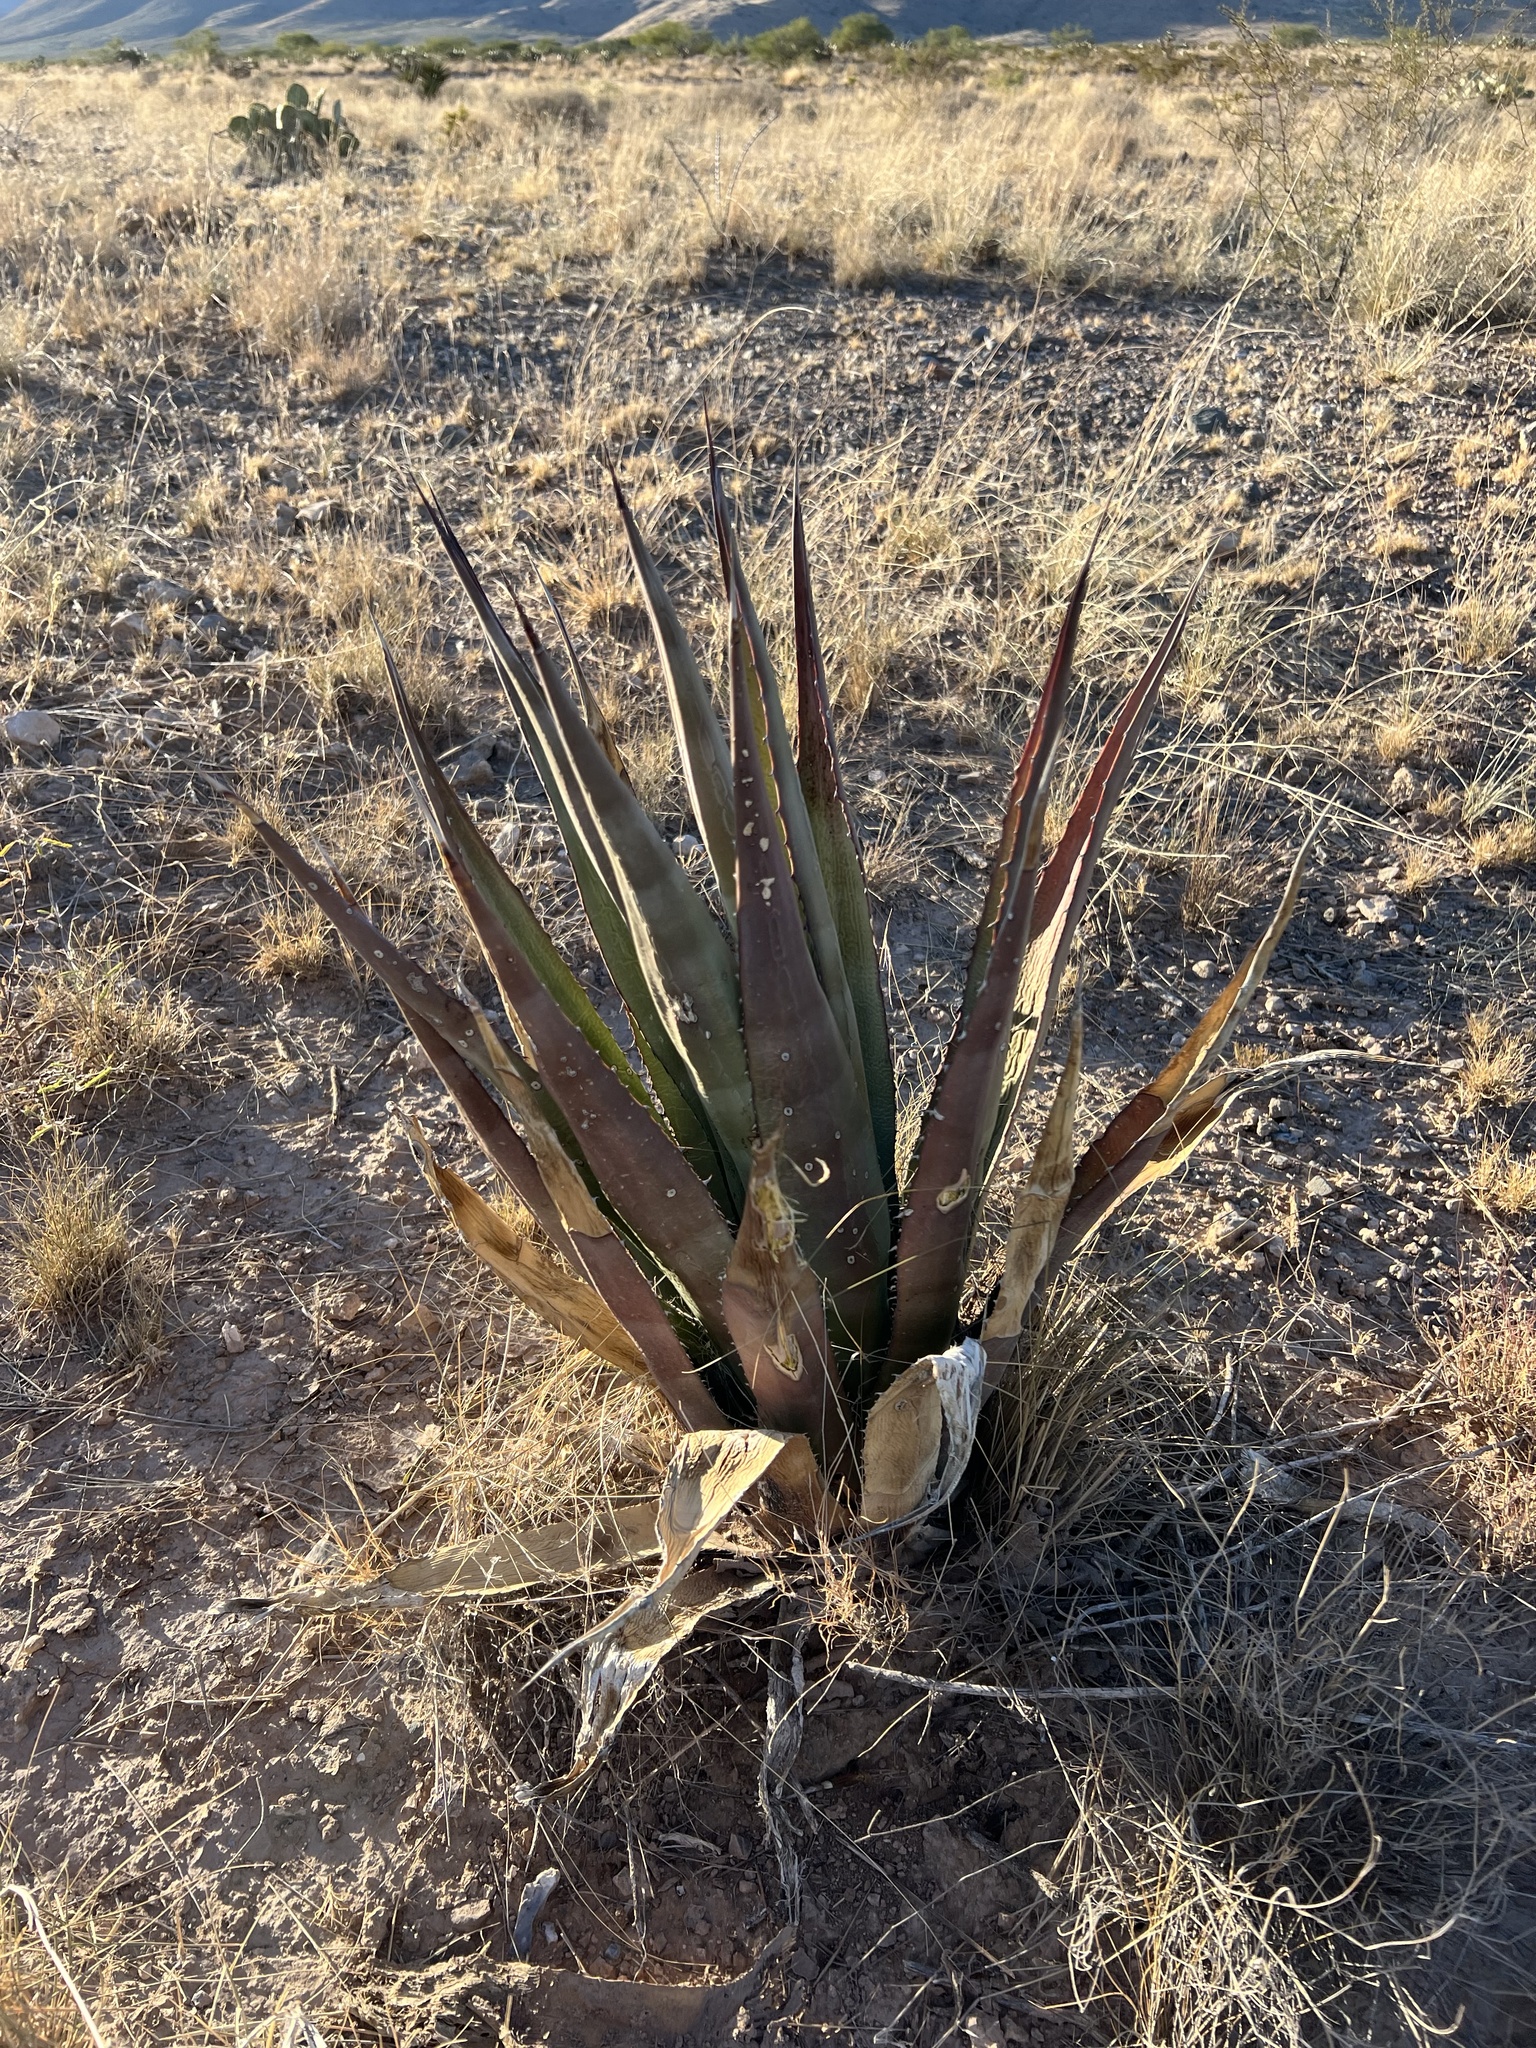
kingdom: Plantae
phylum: Tracheophyta
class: Liliopsida
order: Asparagales
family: Asparagaceae
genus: Agave
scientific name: Agave palmeri
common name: Palmer agave
